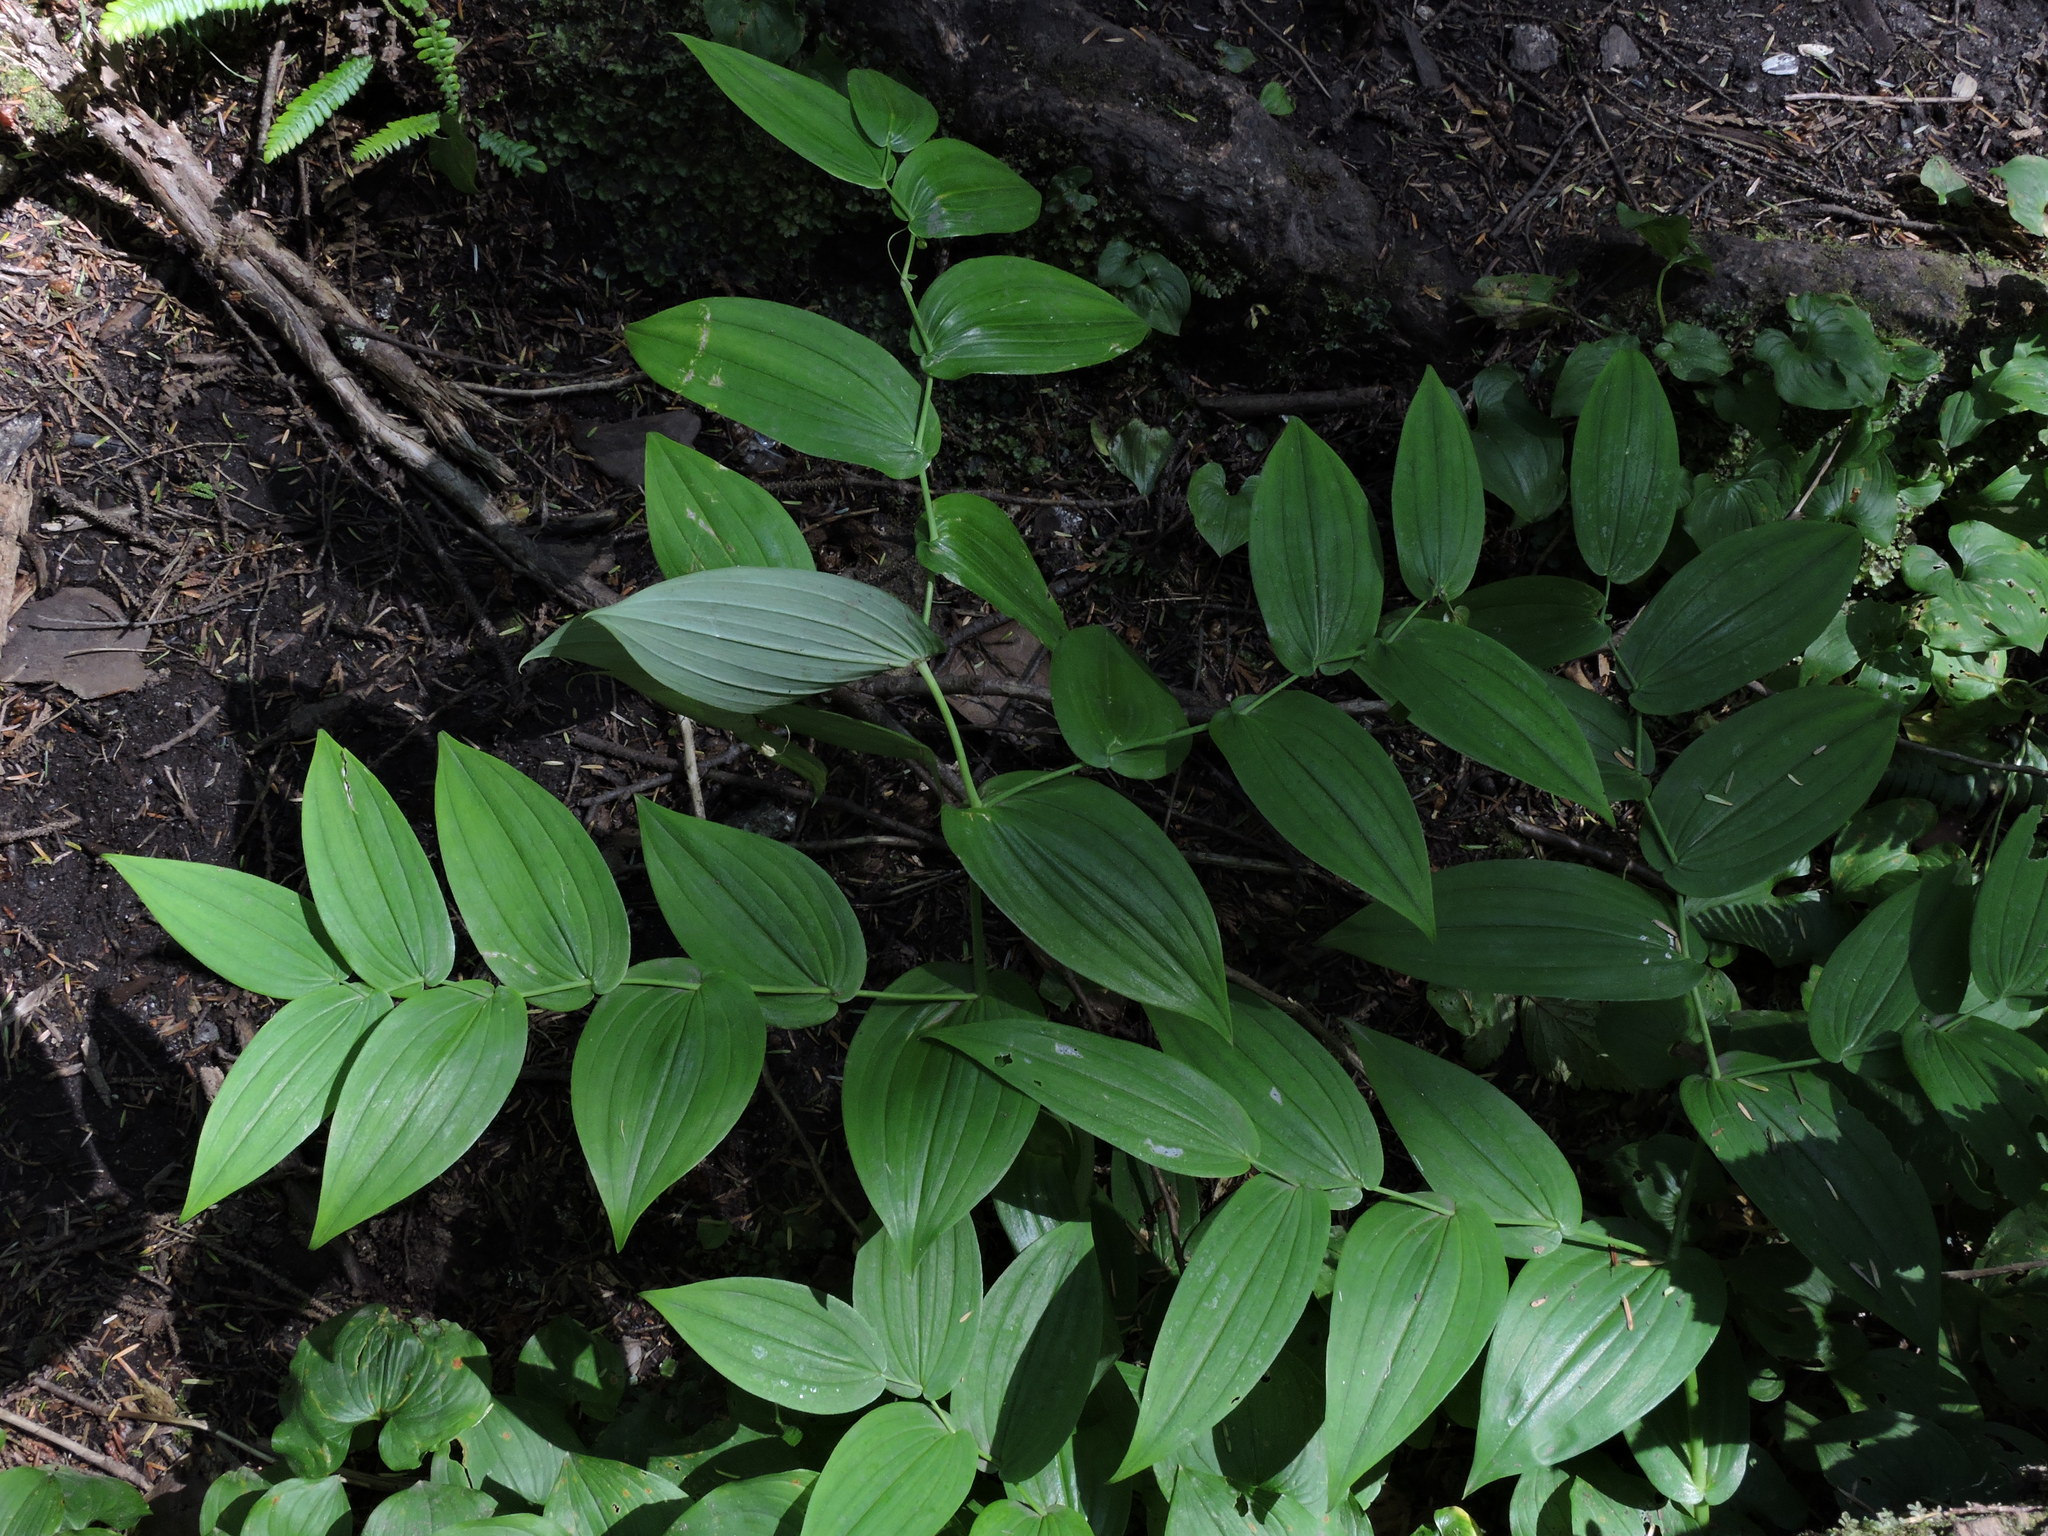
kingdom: Plantae
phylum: Tracheophyta
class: Liliopsida
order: Liliales
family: Liliaceae
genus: Streptopus
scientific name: Streptopus amplexifolius
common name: Clasp twisted stalk
